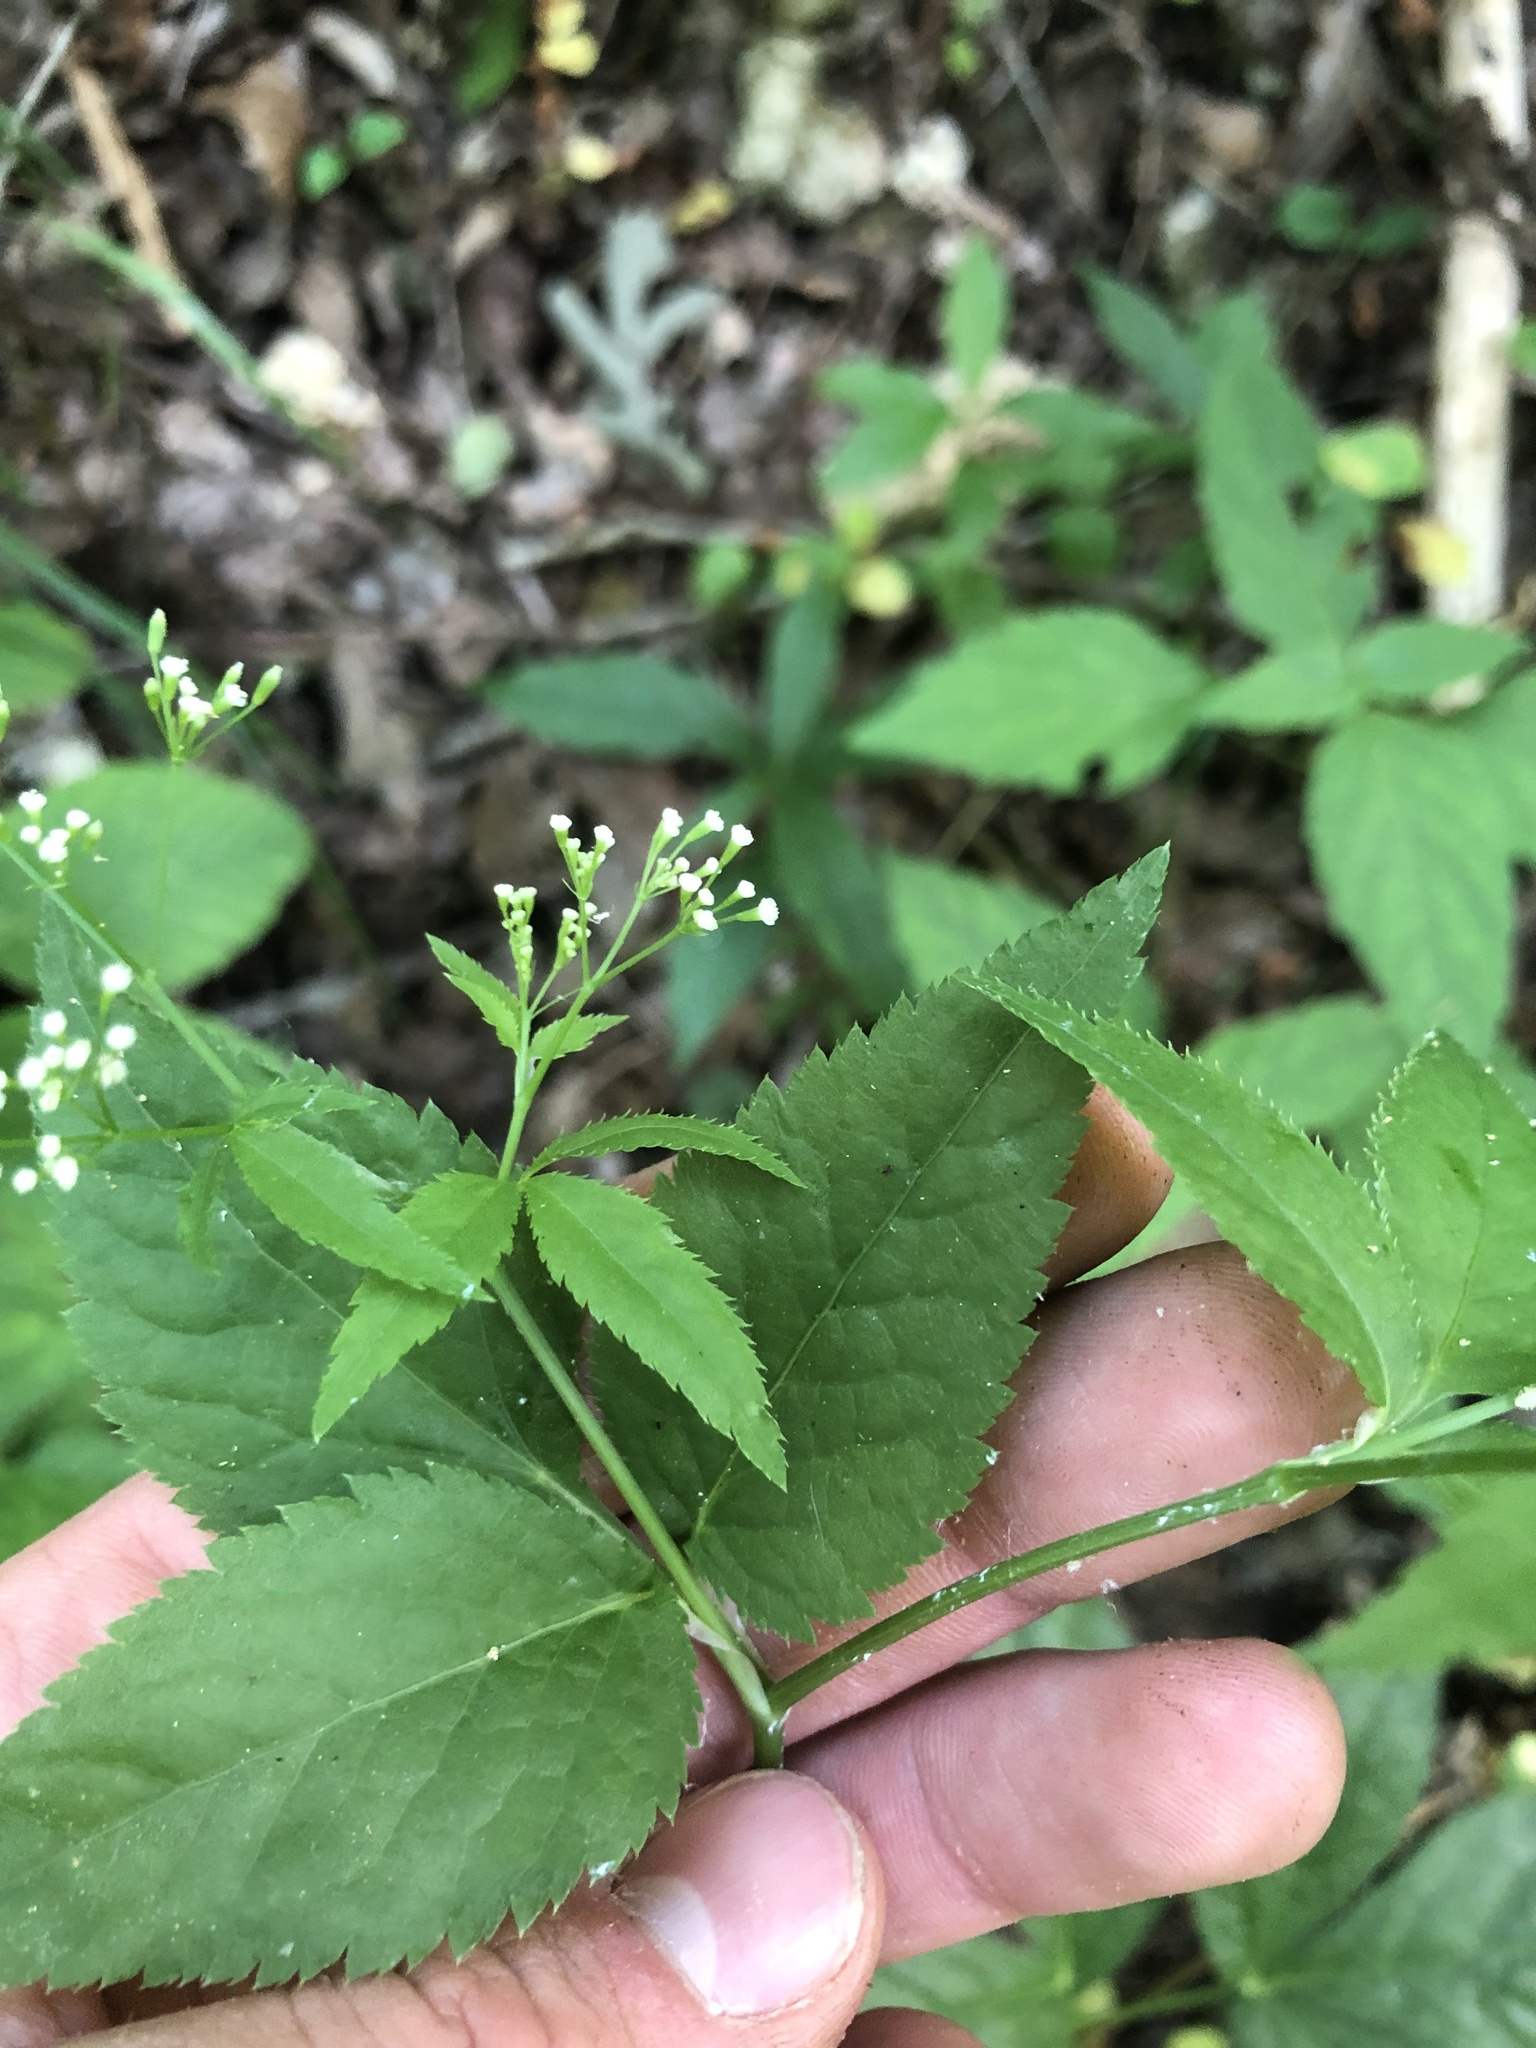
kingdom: Plantae
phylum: Tracheophyta
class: Magnoliopsida
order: Apiales
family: Apiaceae
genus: Cryptotaenia
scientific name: Cryptotaenia canadensis
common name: Honewort
